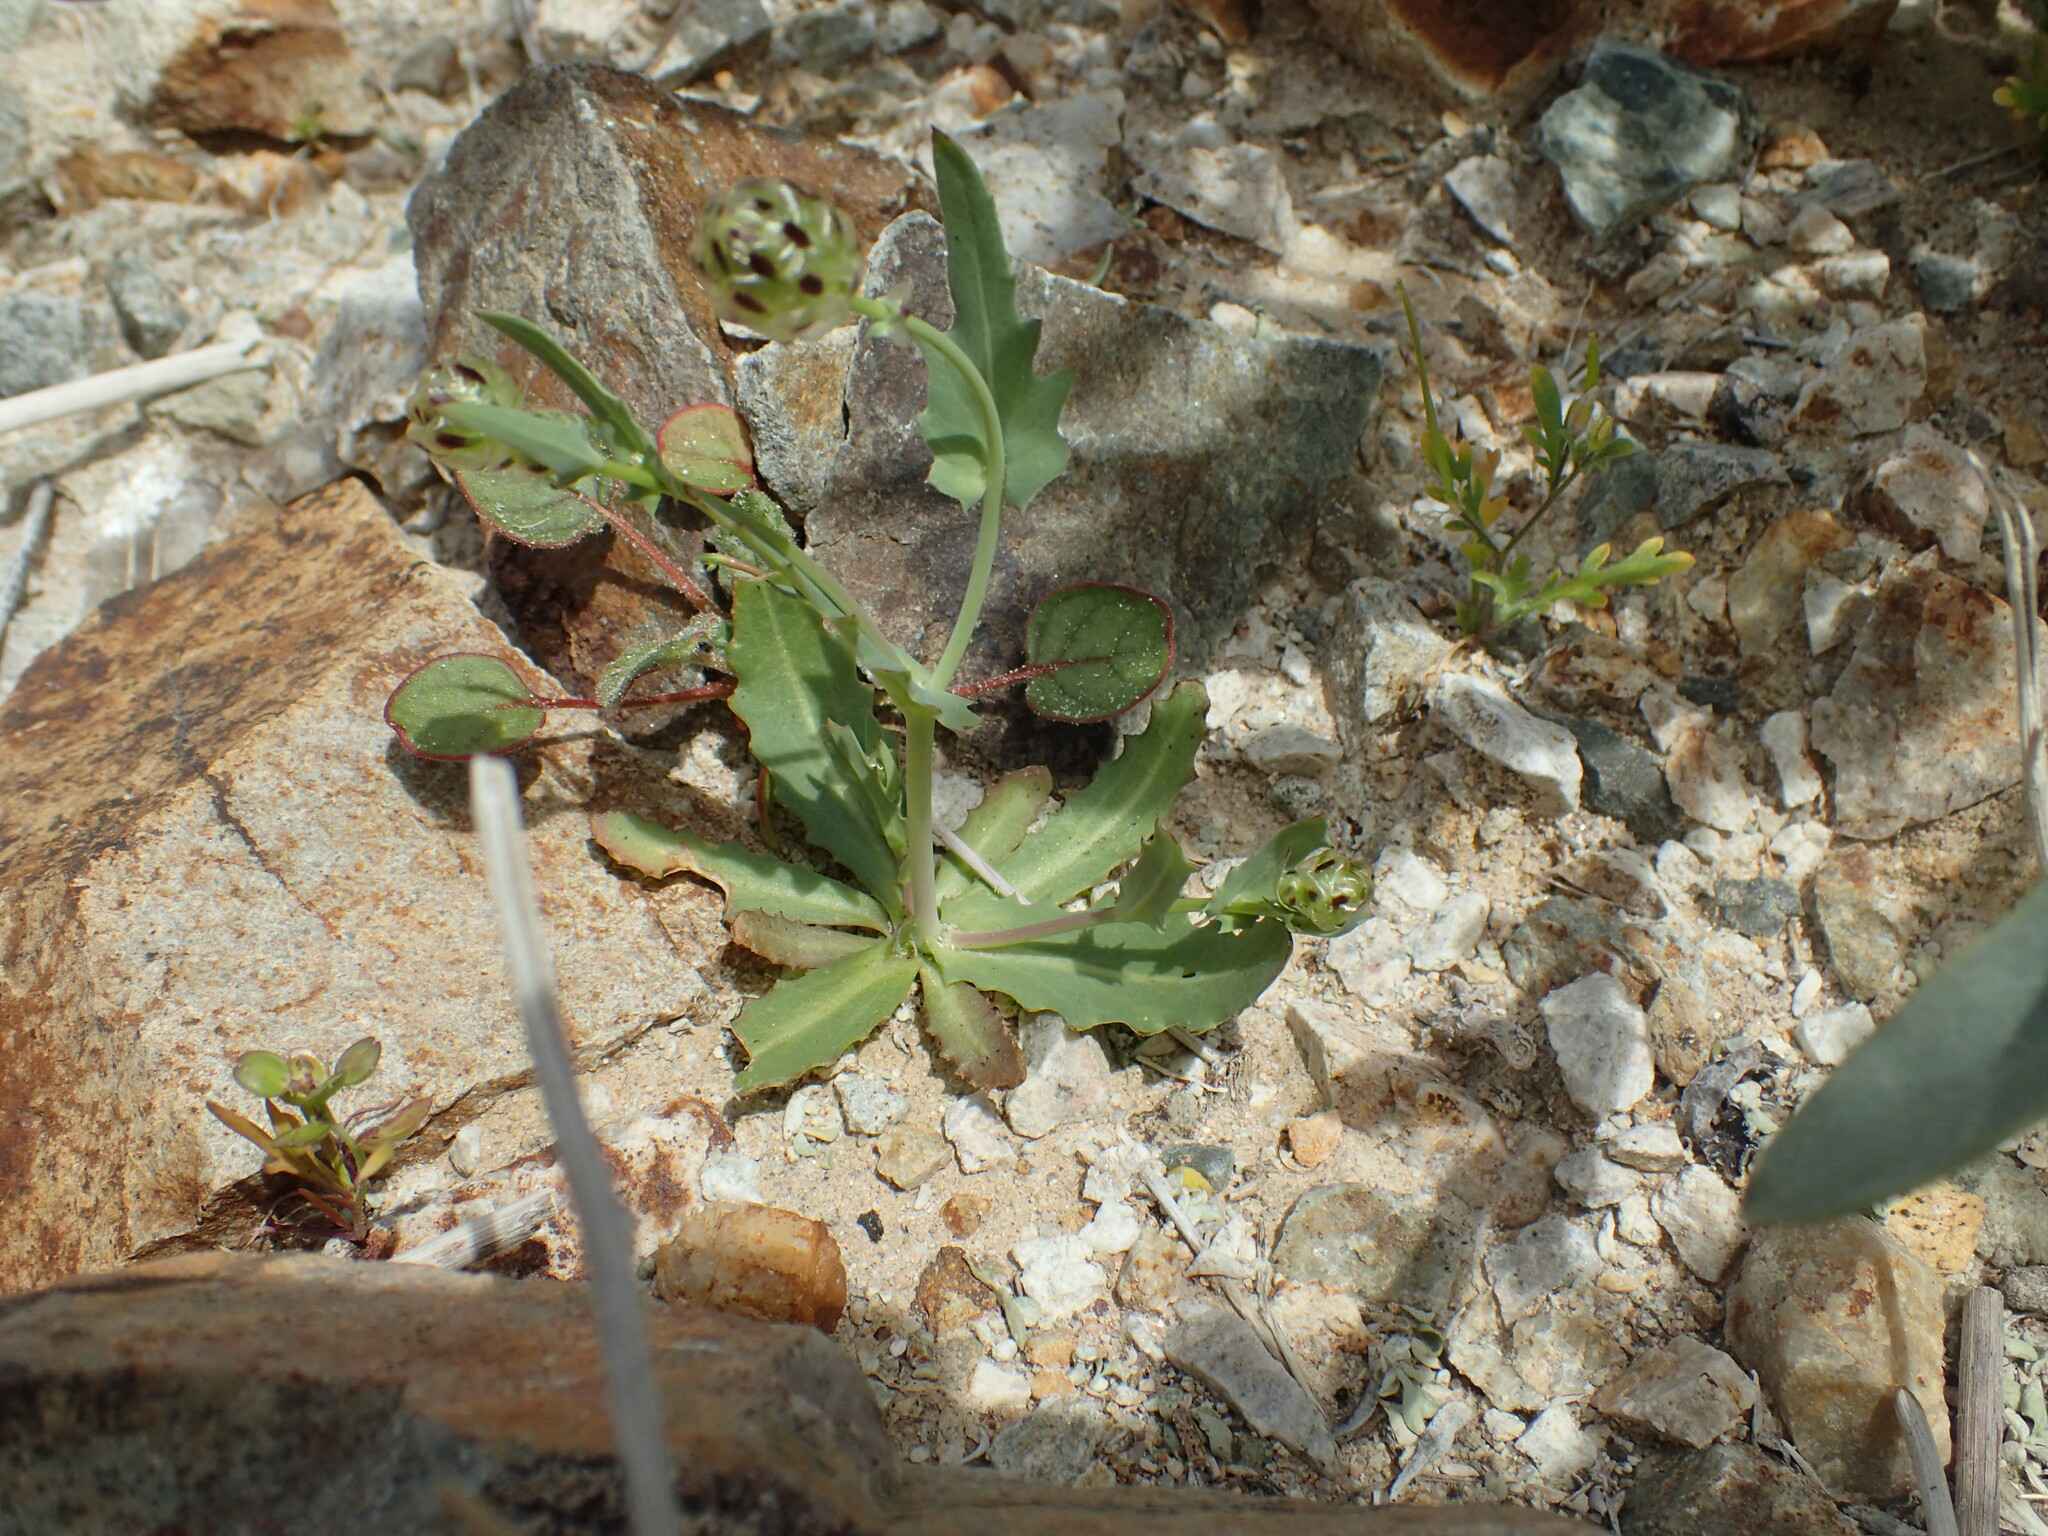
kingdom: Plantae
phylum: Tracheophyta
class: Magnoliopsida
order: Asterales
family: Asteraceae
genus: Malacothrix
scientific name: Malacothrix coulteri
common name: Snake's-head
